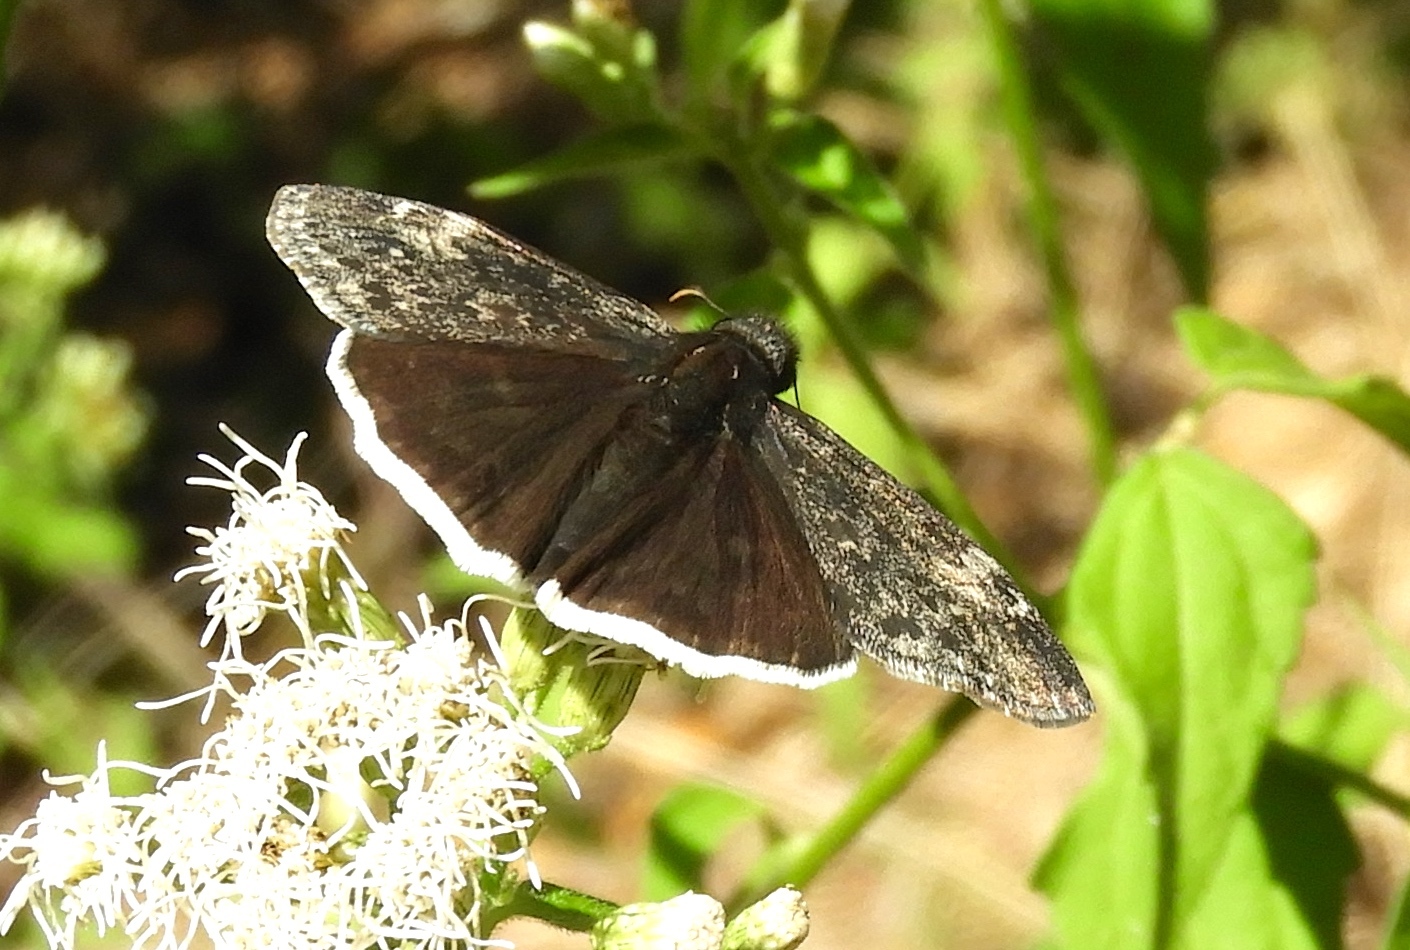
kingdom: Animalia
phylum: Arthropoda
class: Insecta
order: Lepidoptera
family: Hesperiidae
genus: Erynnis
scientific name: Erynnis funeralis
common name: Funereal duskywing
